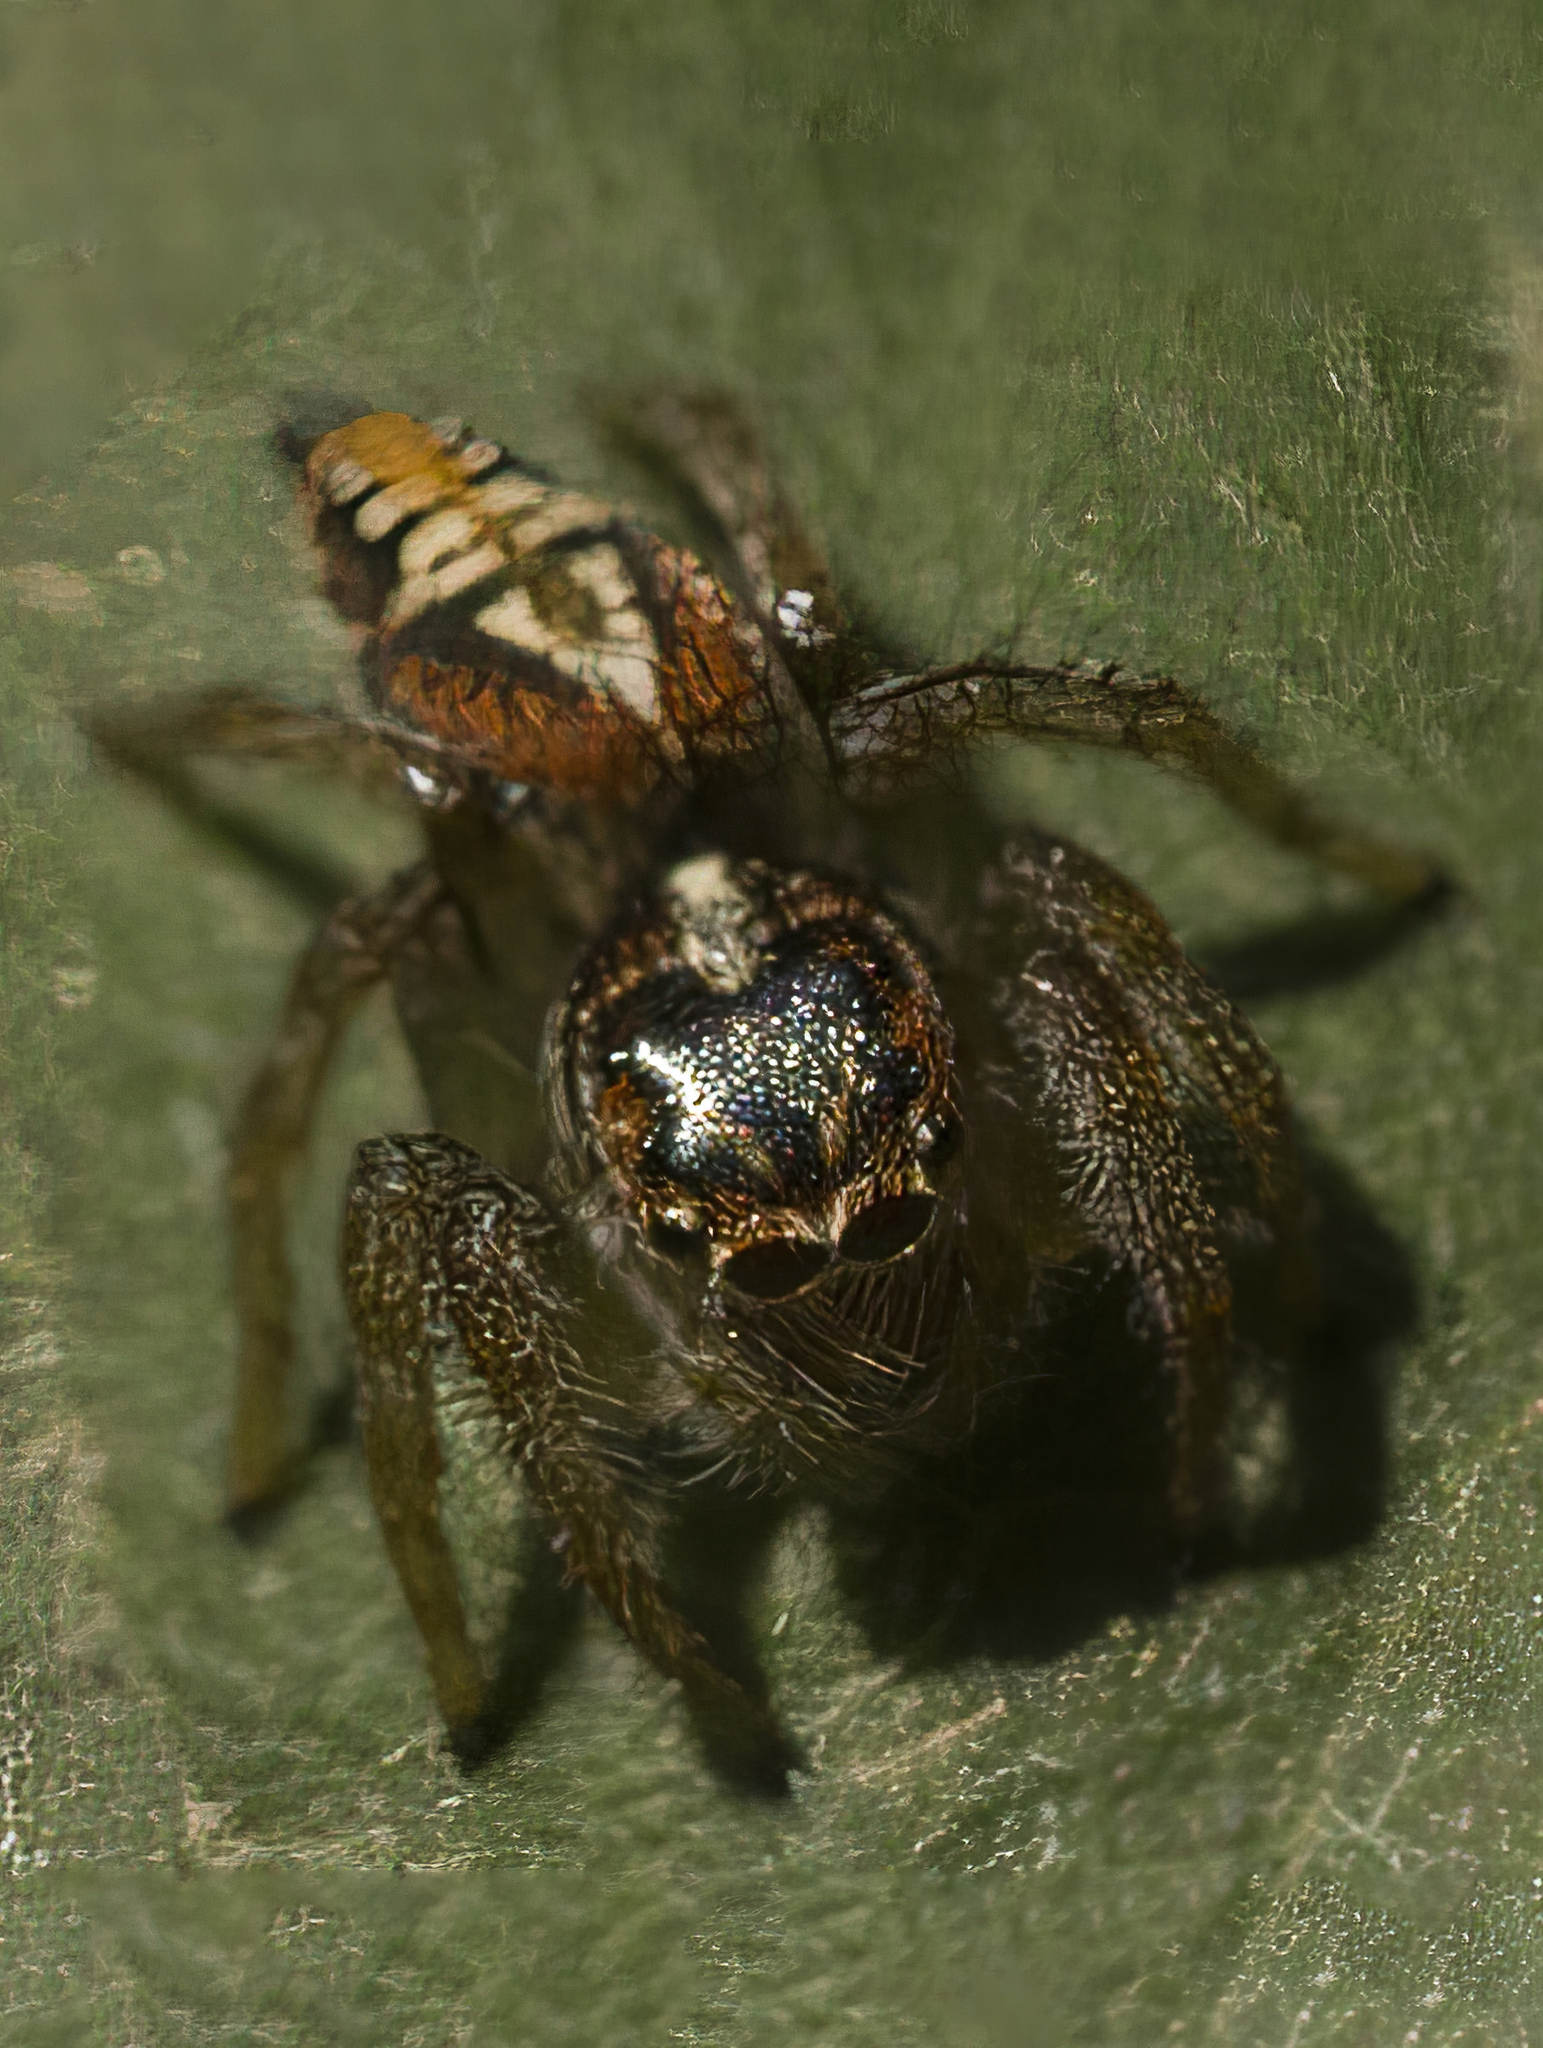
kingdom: Animalia
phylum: Arthropoda
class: Arachnida
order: Araneae
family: Salticidae
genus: Frigga
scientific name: Frigga quintensis
